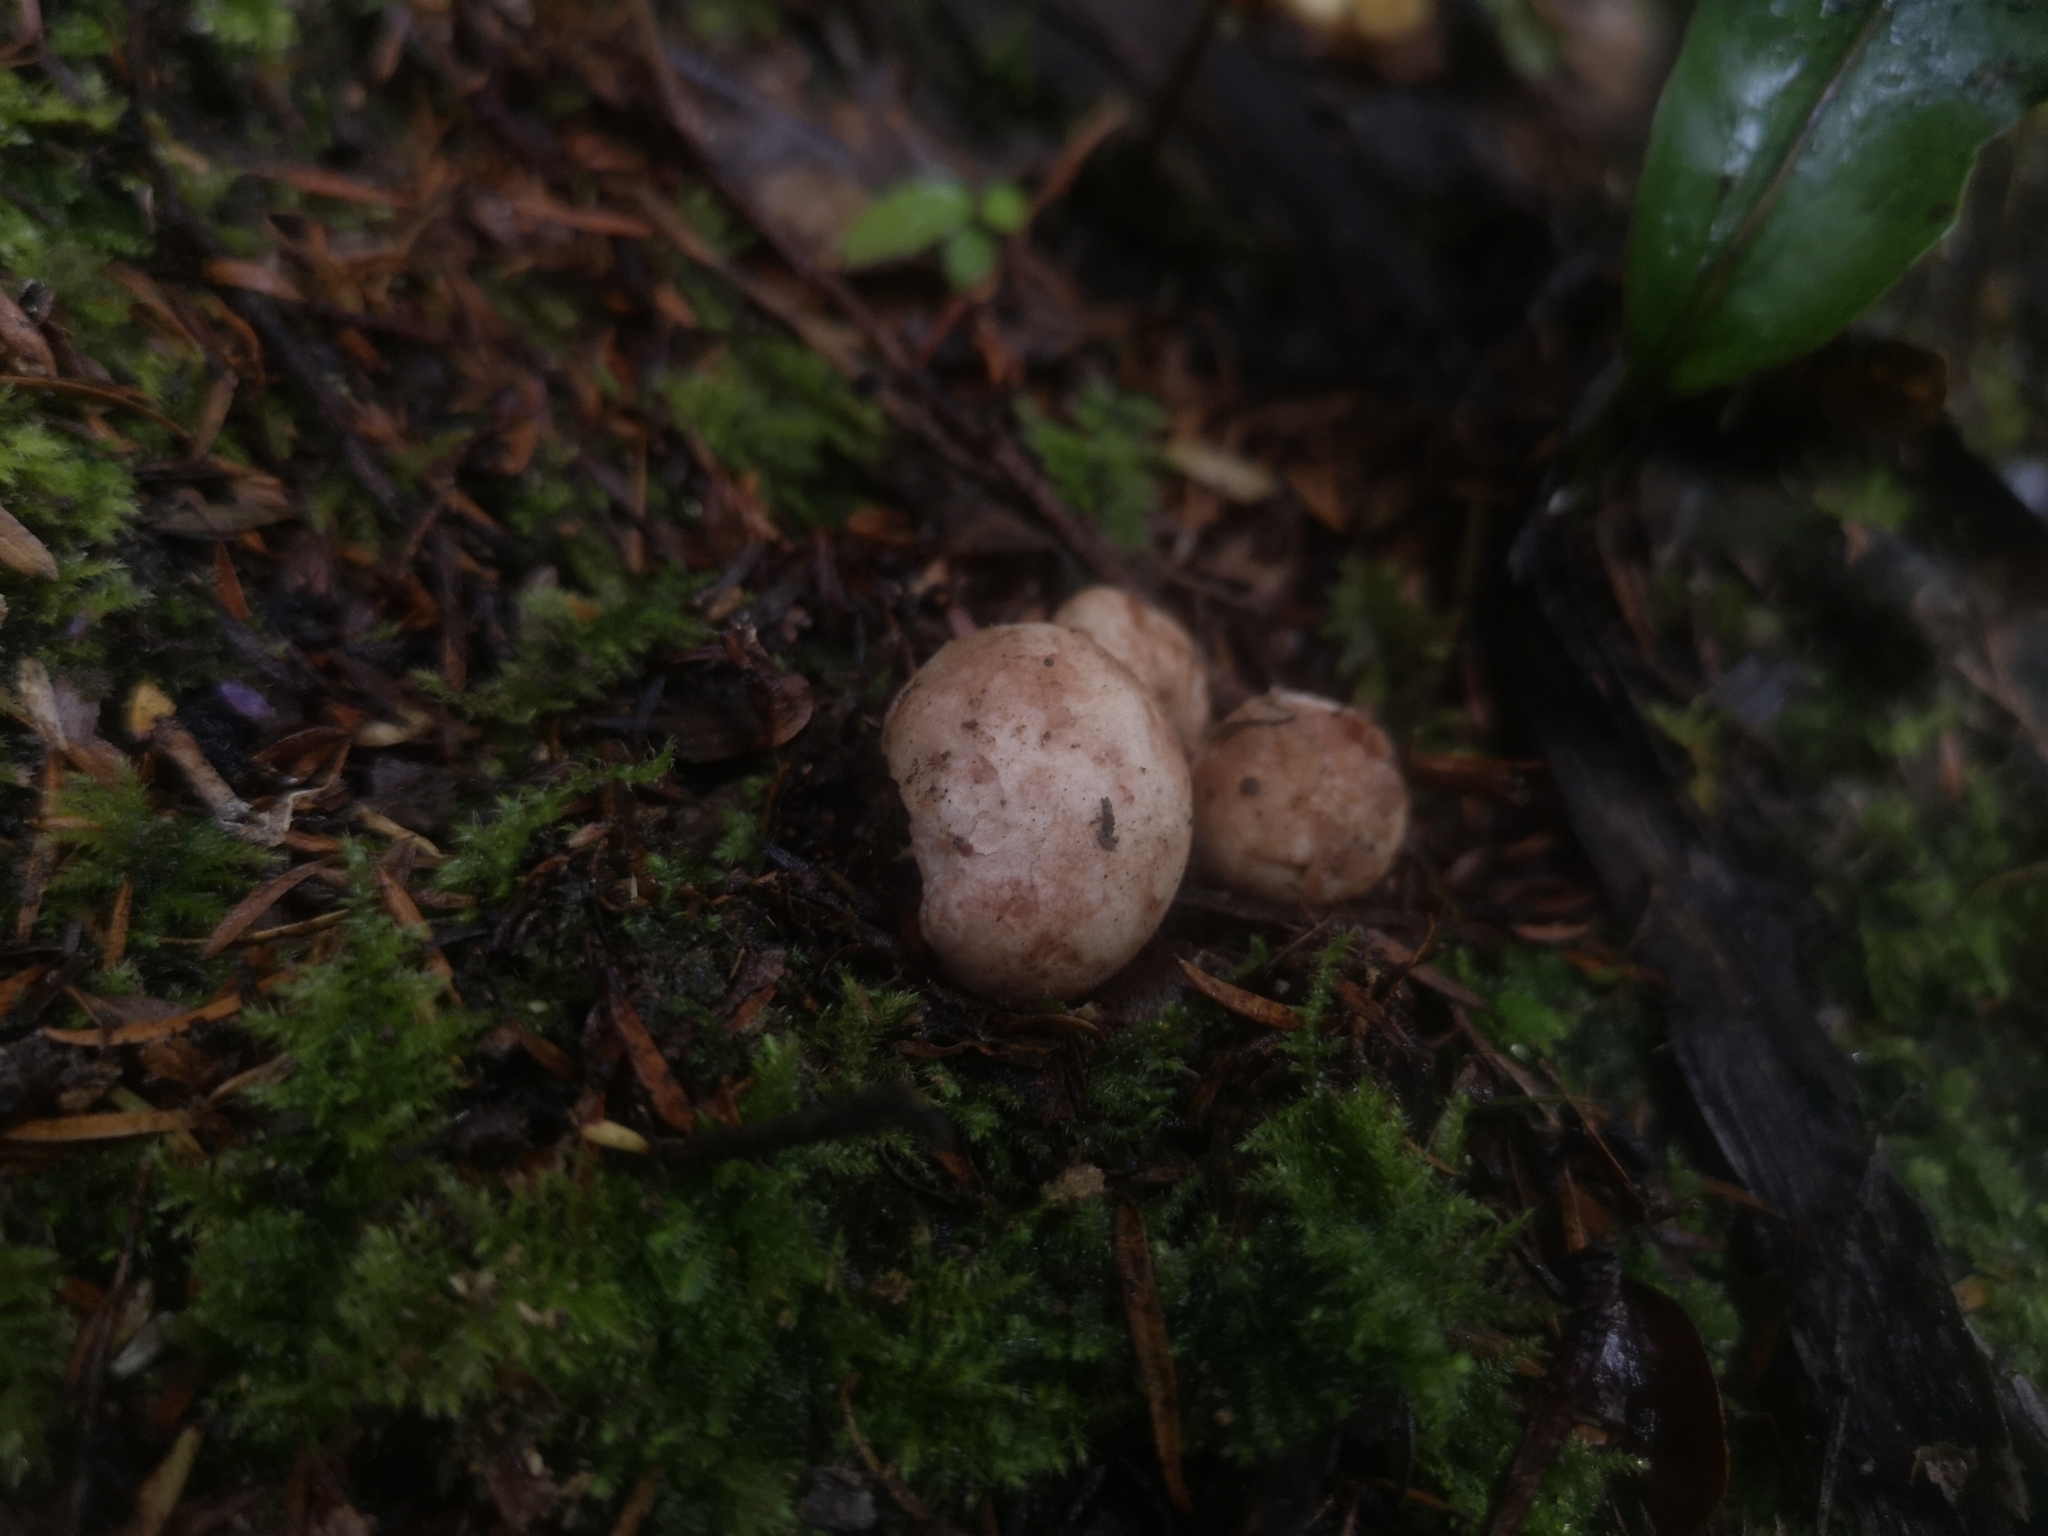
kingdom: Fungi
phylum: Basidiomycota
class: Agaricomycetes
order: Agaricales
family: Hydnangiaceae
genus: Hydnangium
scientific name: Hydnangium kanuka
